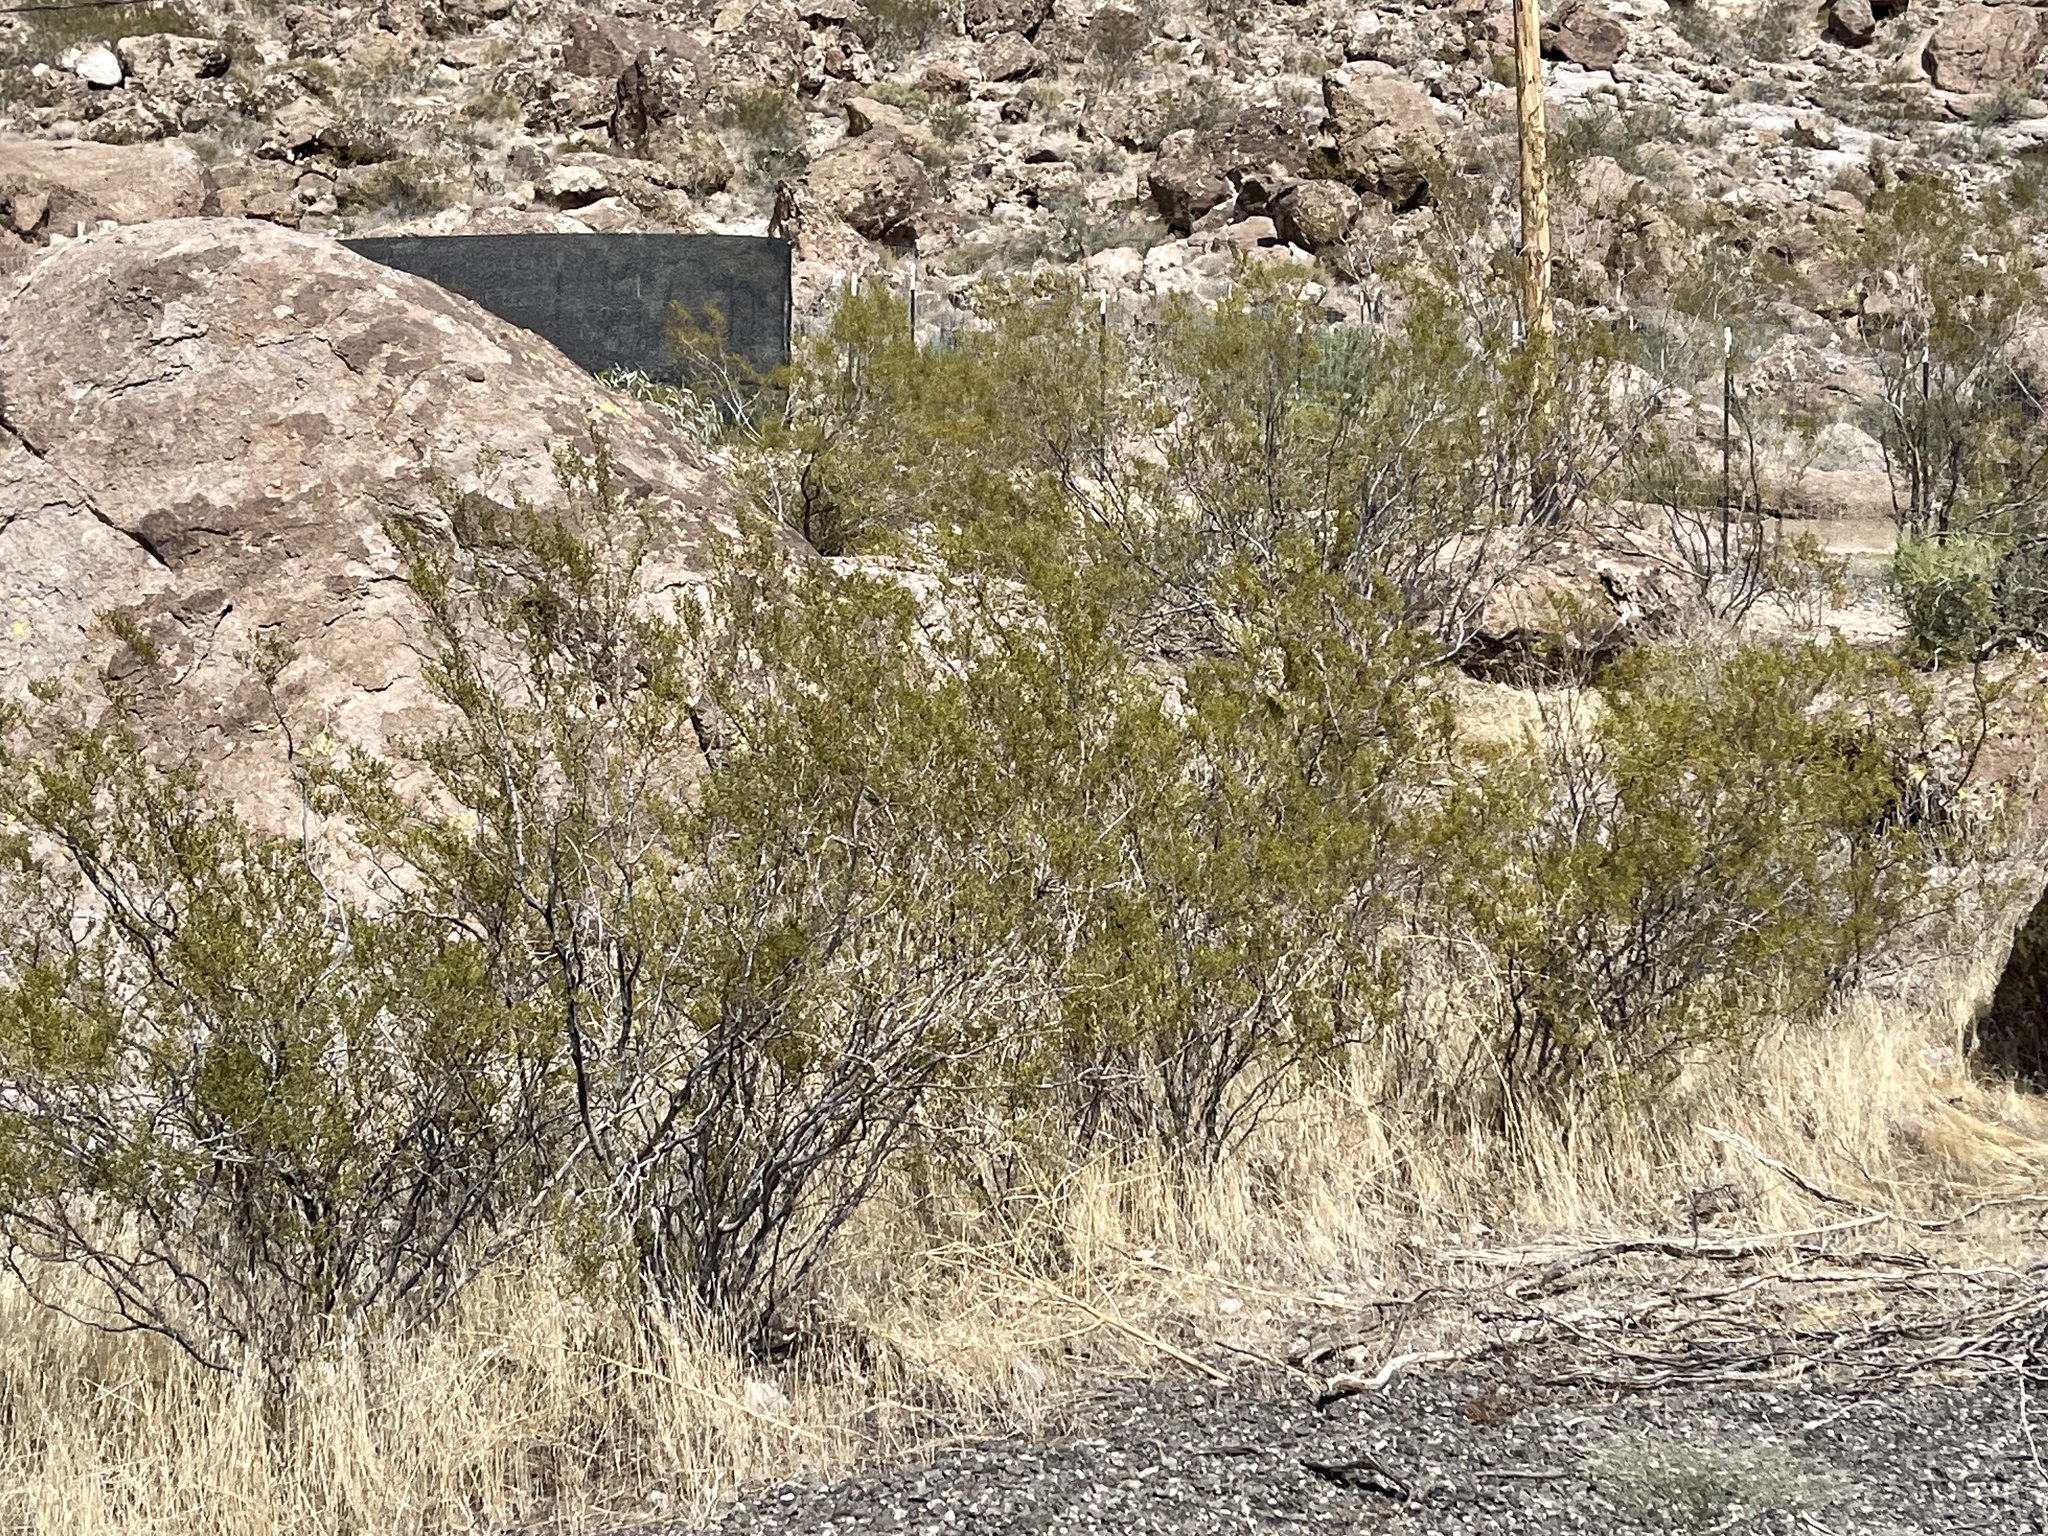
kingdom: Plantae
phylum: Tracheophyta
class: Magnoliopsida
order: Zygophyllales
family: Zygophyllaceae
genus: Larrea
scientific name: Larrea tridentata
